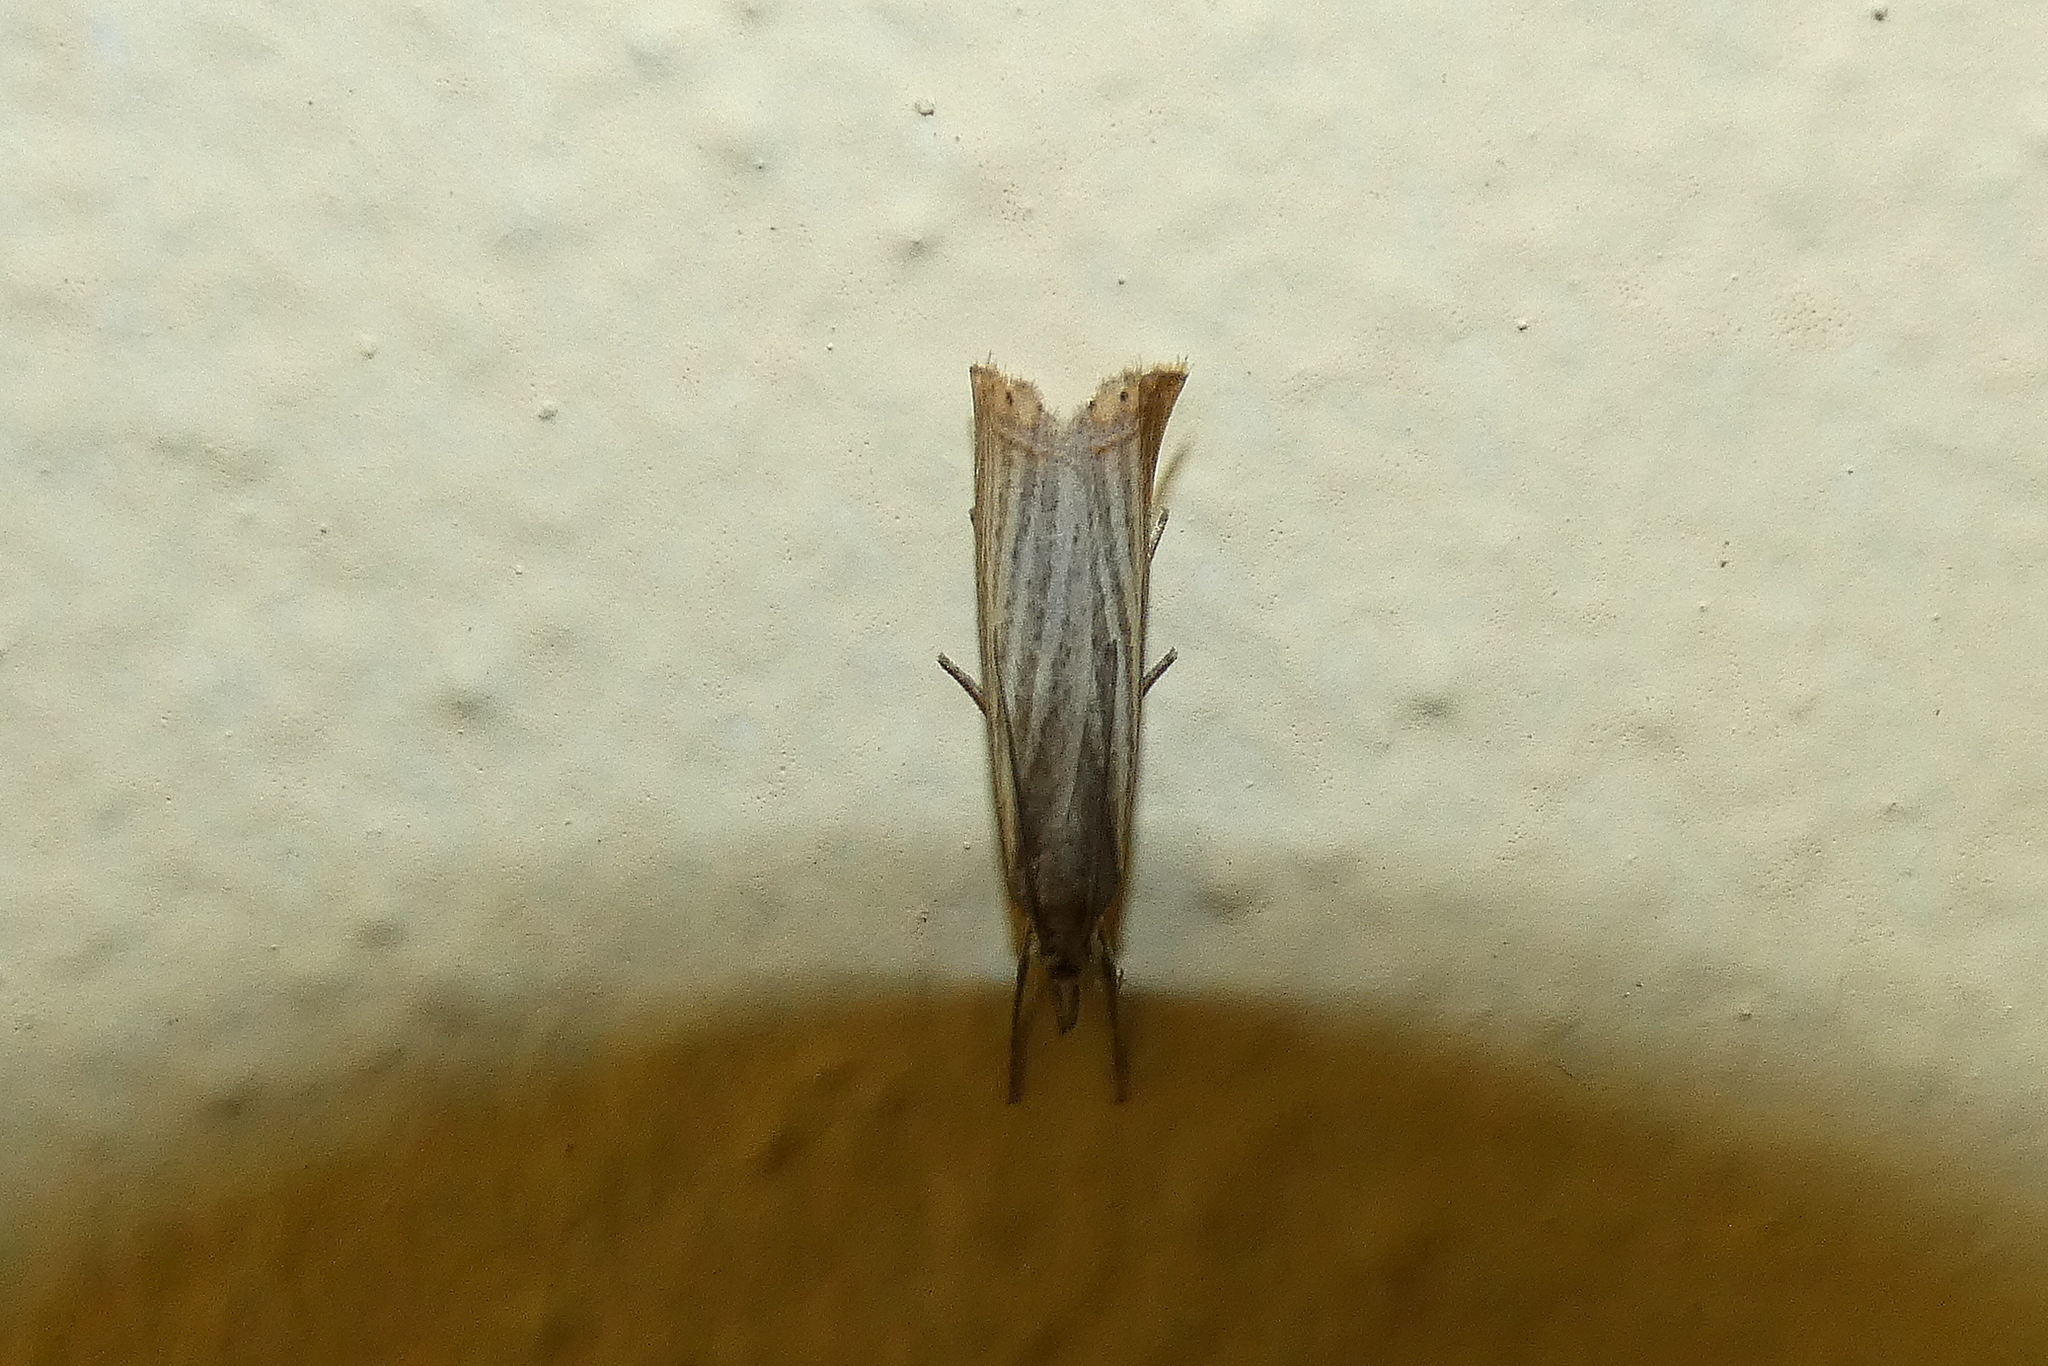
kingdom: Animalia
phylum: Arthropoda
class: Insecta
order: Lepidoptera
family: Crambidae
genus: Chrysoteuchia
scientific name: Chrysoteuchia culmella
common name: Garden grass-veneer
